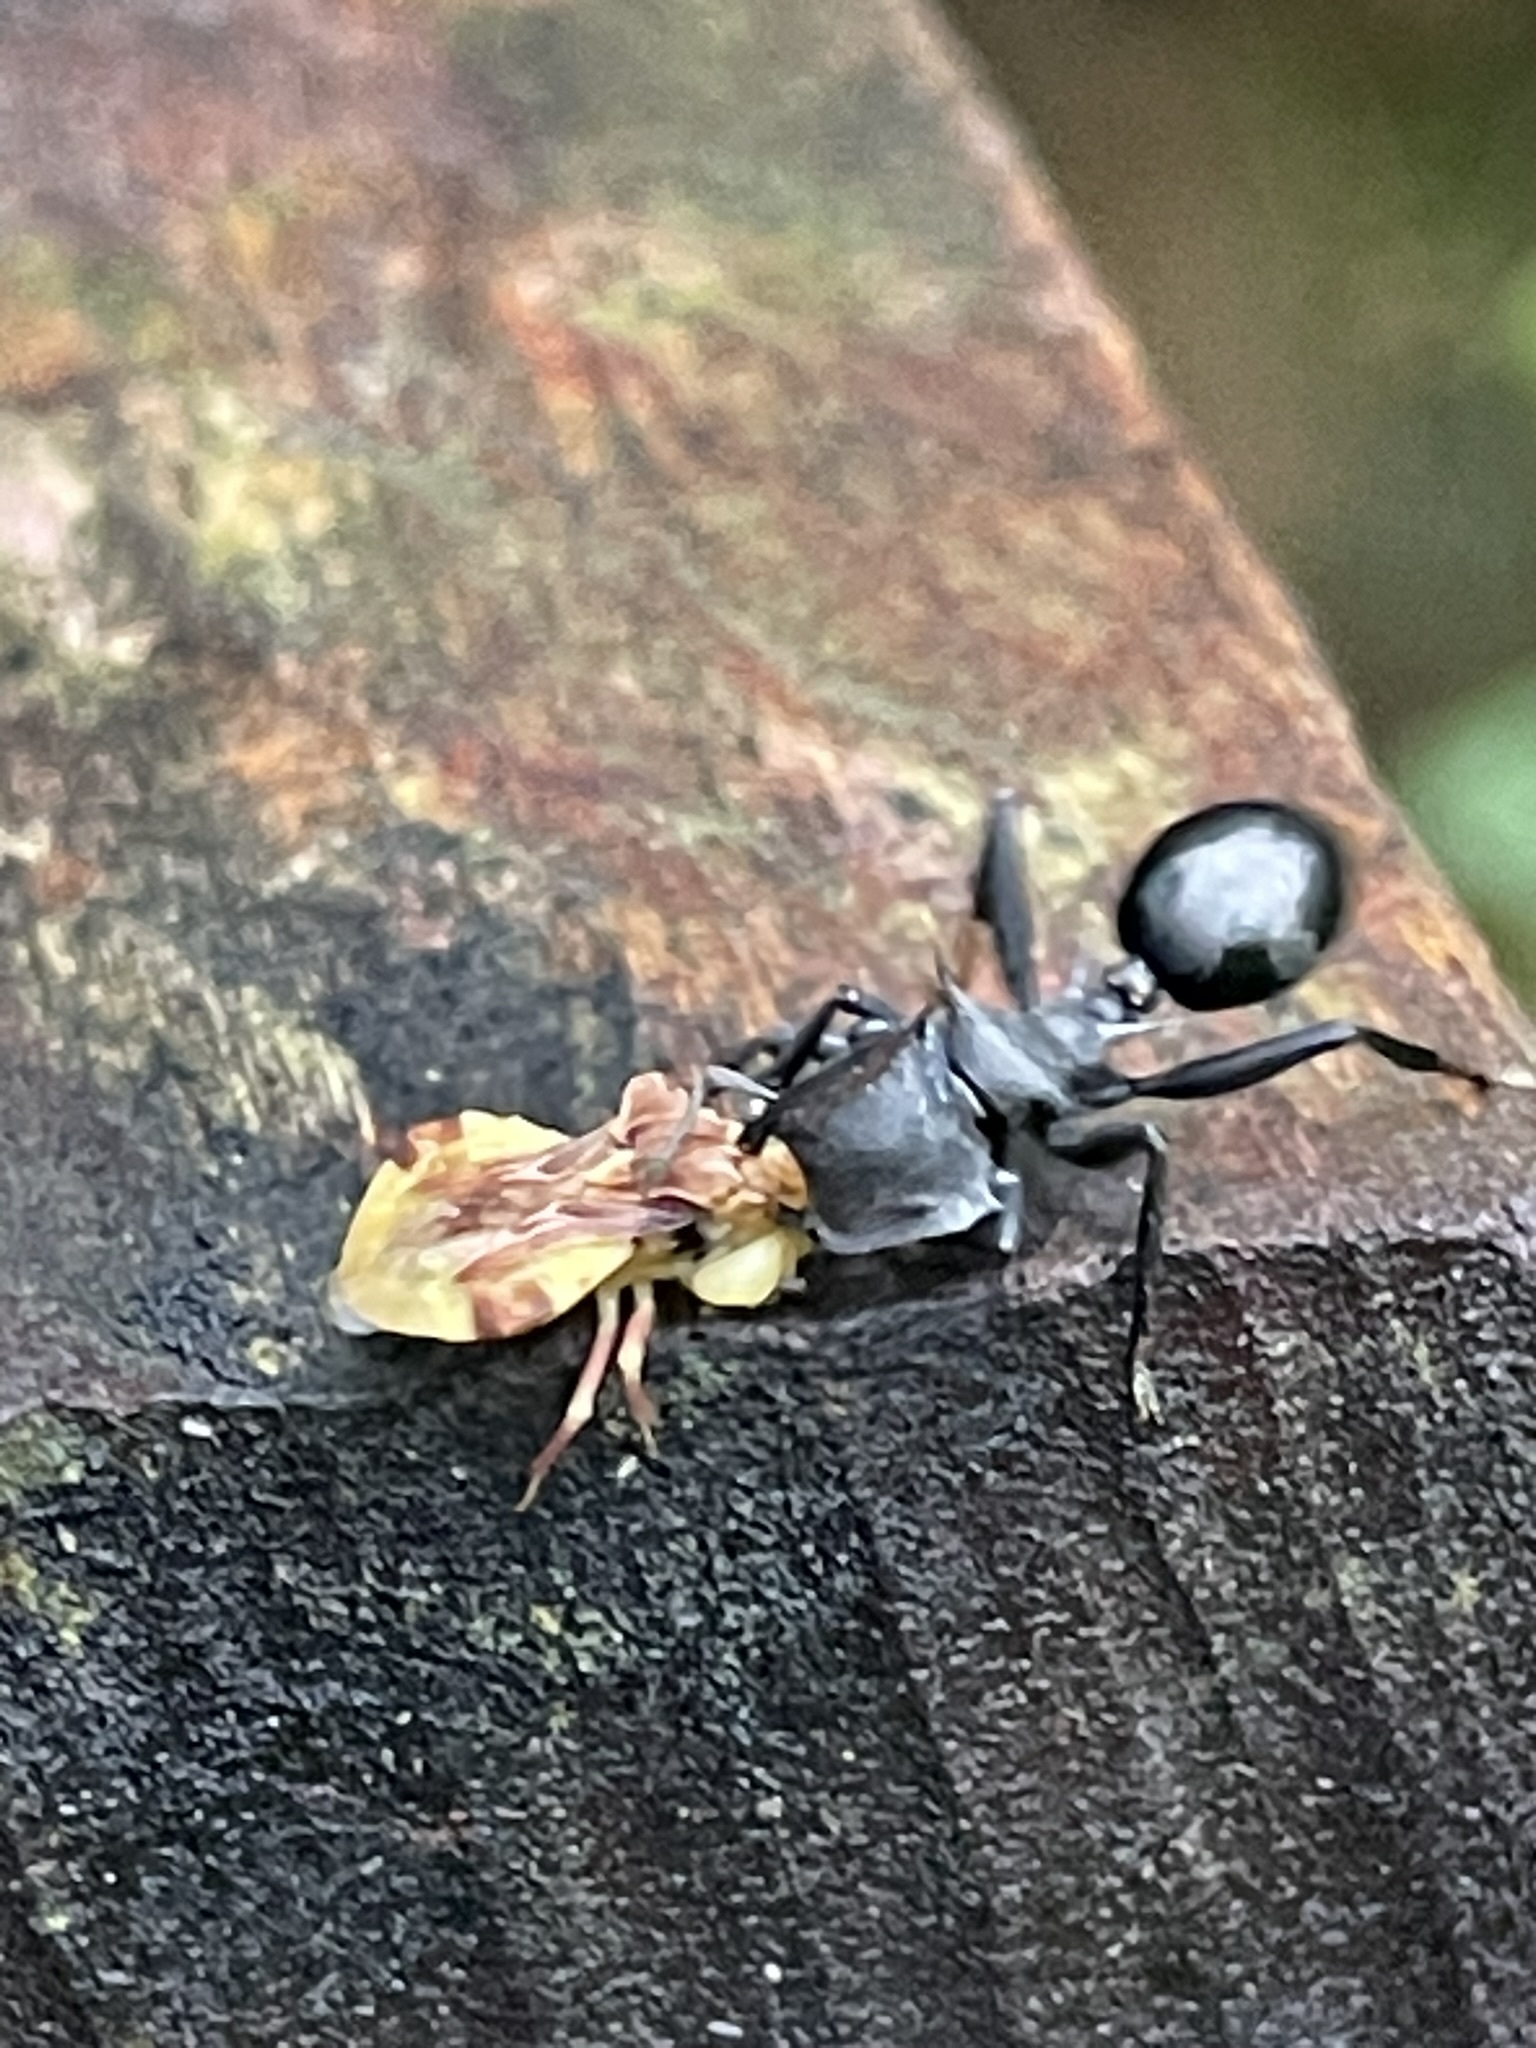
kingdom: Animalia
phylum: Arthropoda
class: Insecta
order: Hymenoptera
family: Formicidae
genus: Cephalotes
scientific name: Cephalotes atratus
